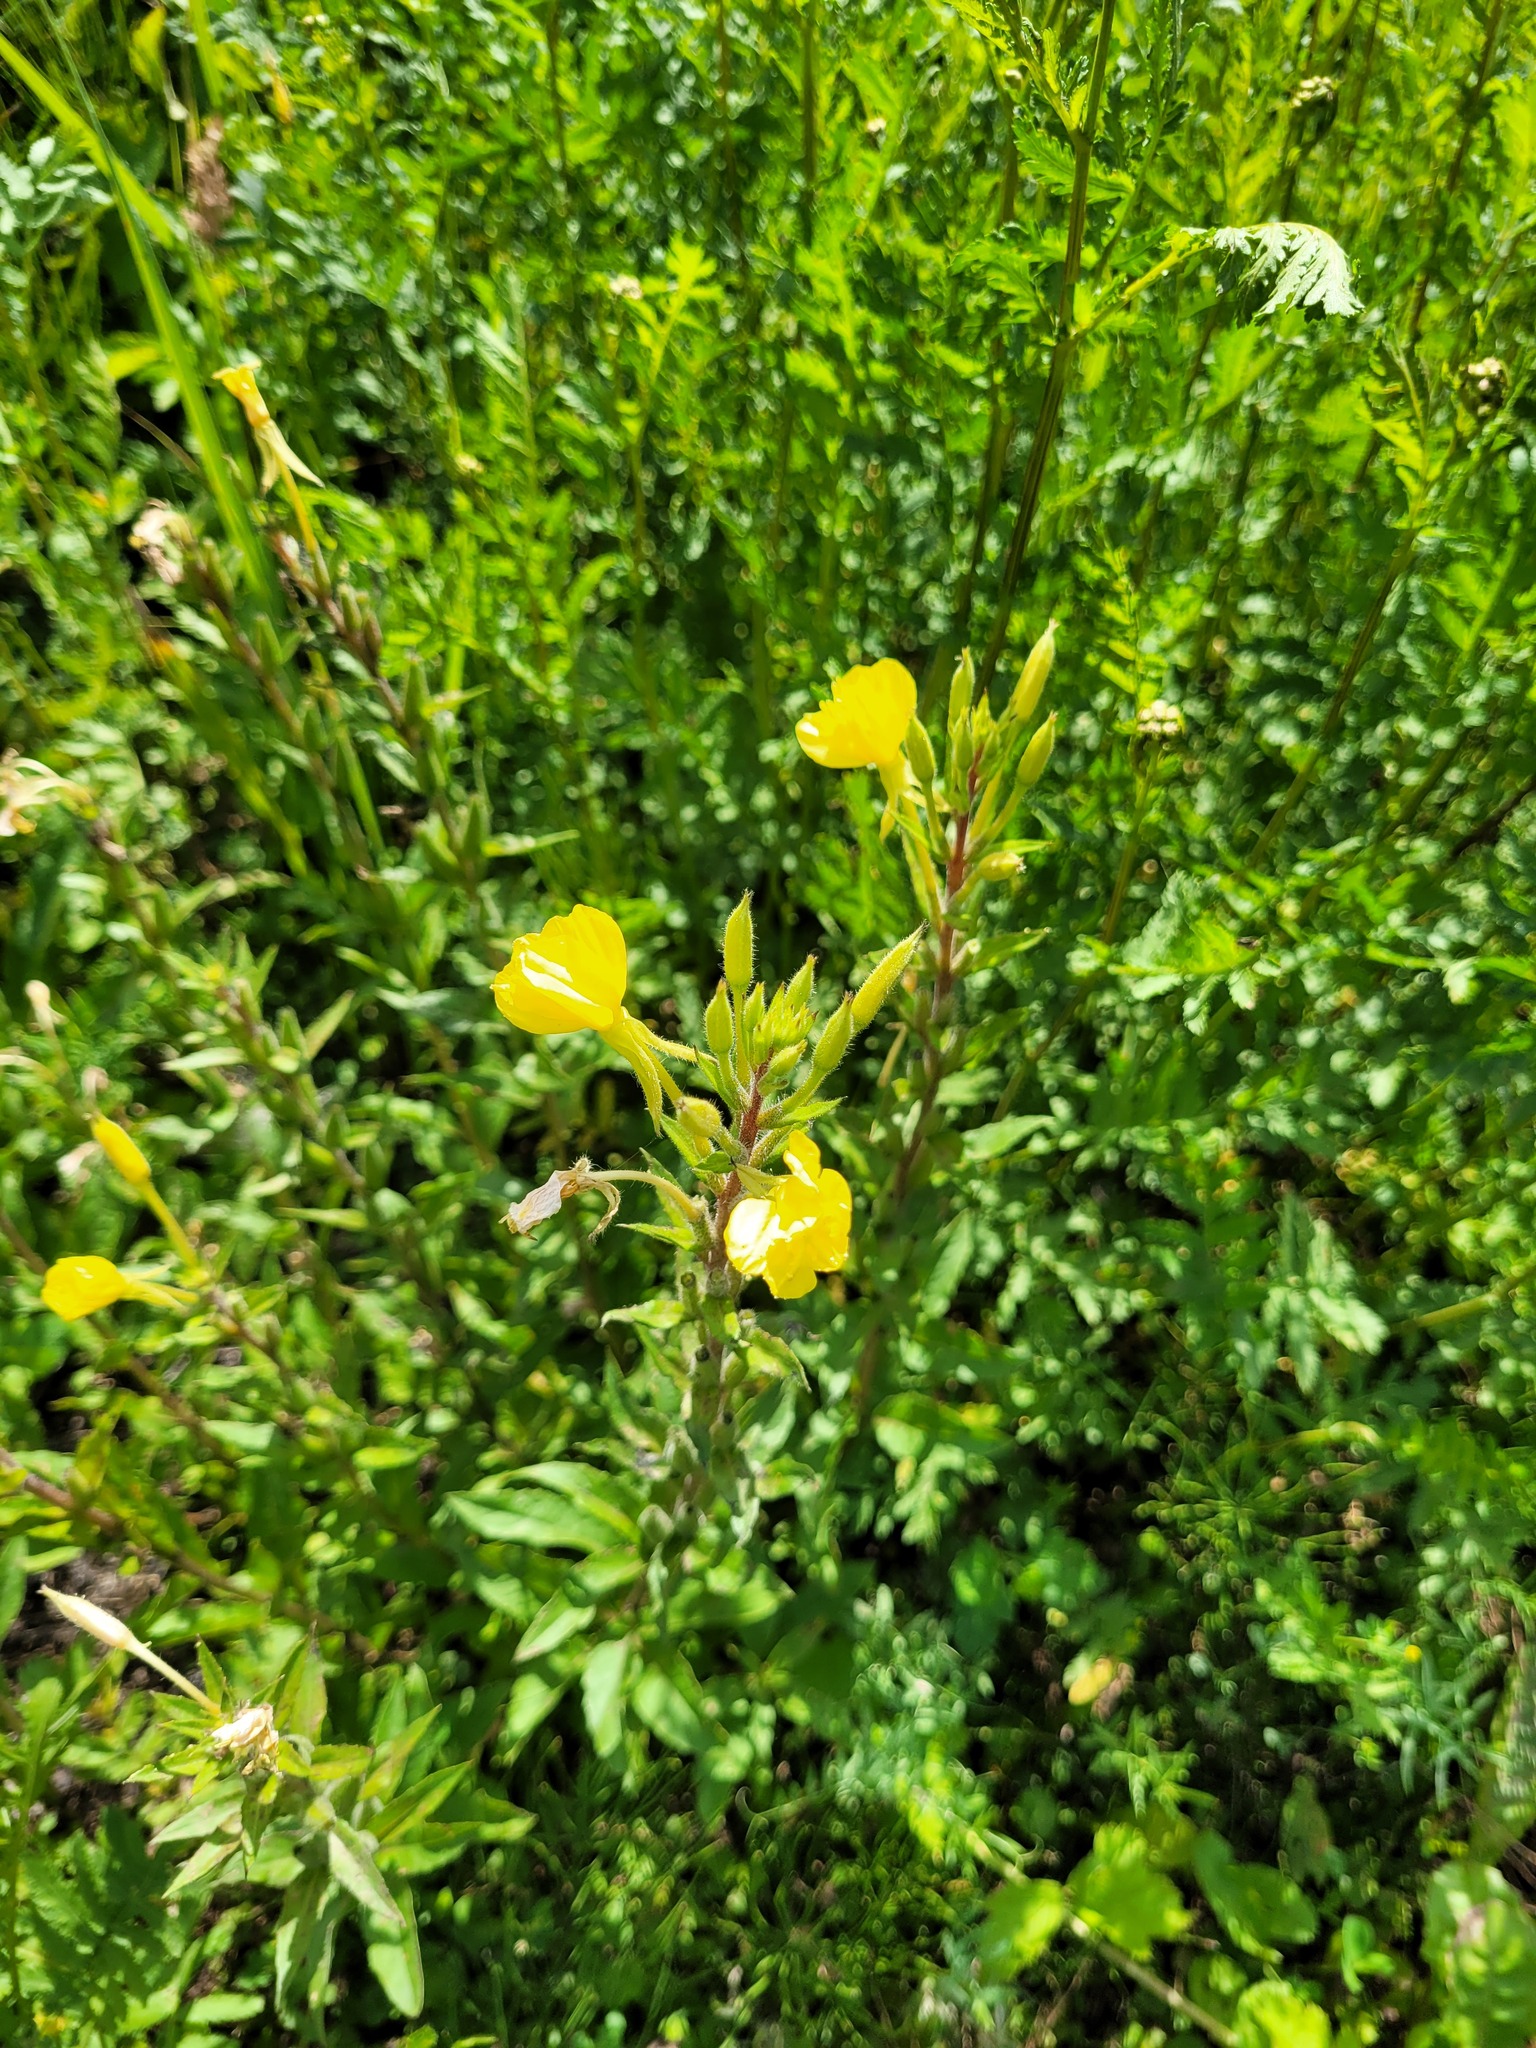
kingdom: Plantae
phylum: Tracheophyta
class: Magnoliopsida
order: Myrtales
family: Onagraceae
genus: Oenothera
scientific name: Oenothera rubricaulis
